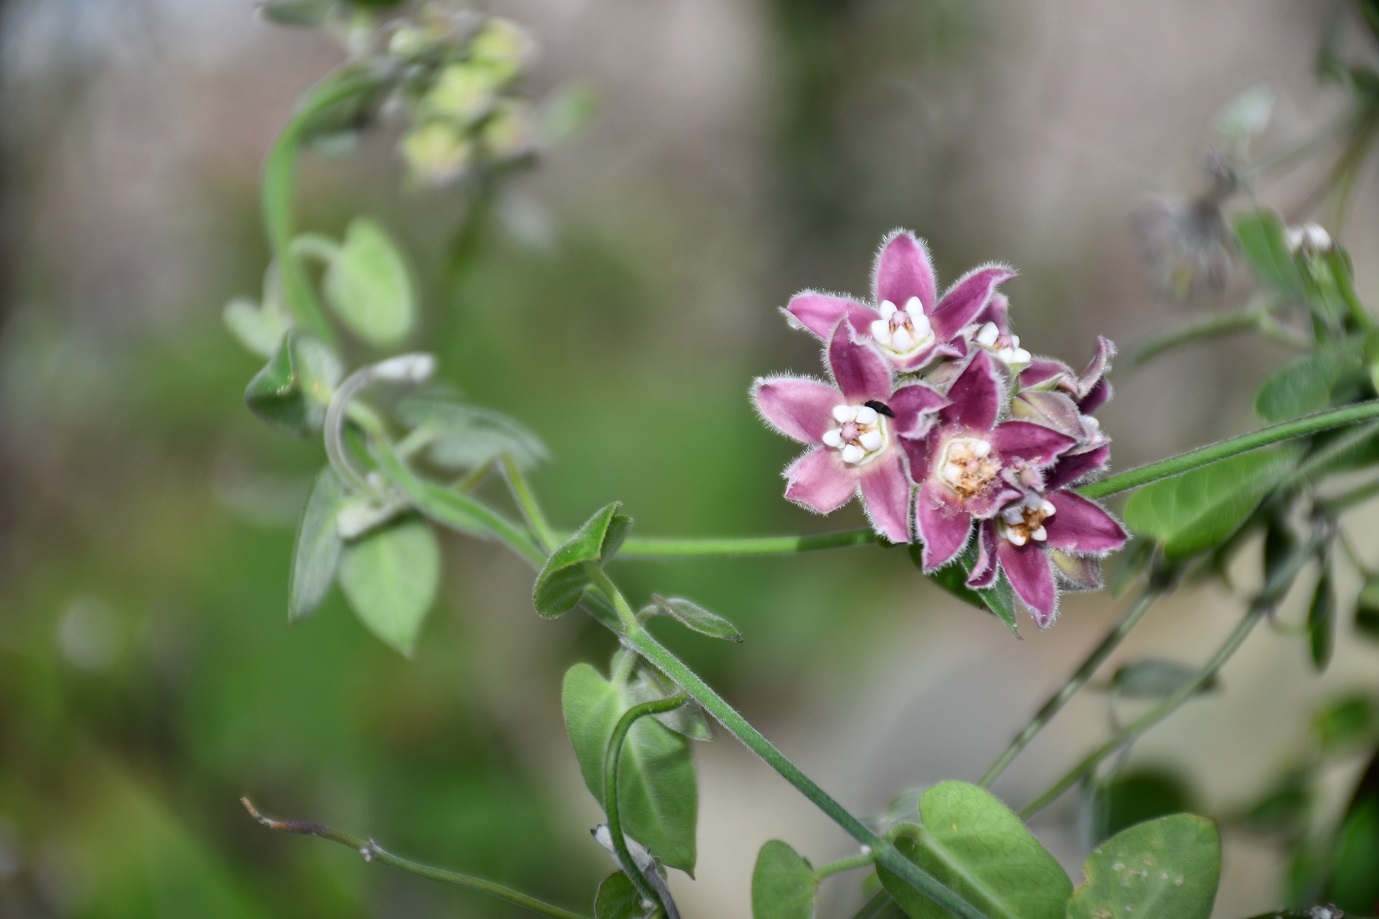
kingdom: Plantae
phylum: Tracheophyta
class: Magnoliopsida
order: Gentianales
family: Apocynaceae
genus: Funastrum
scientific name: Funastrum elegans
